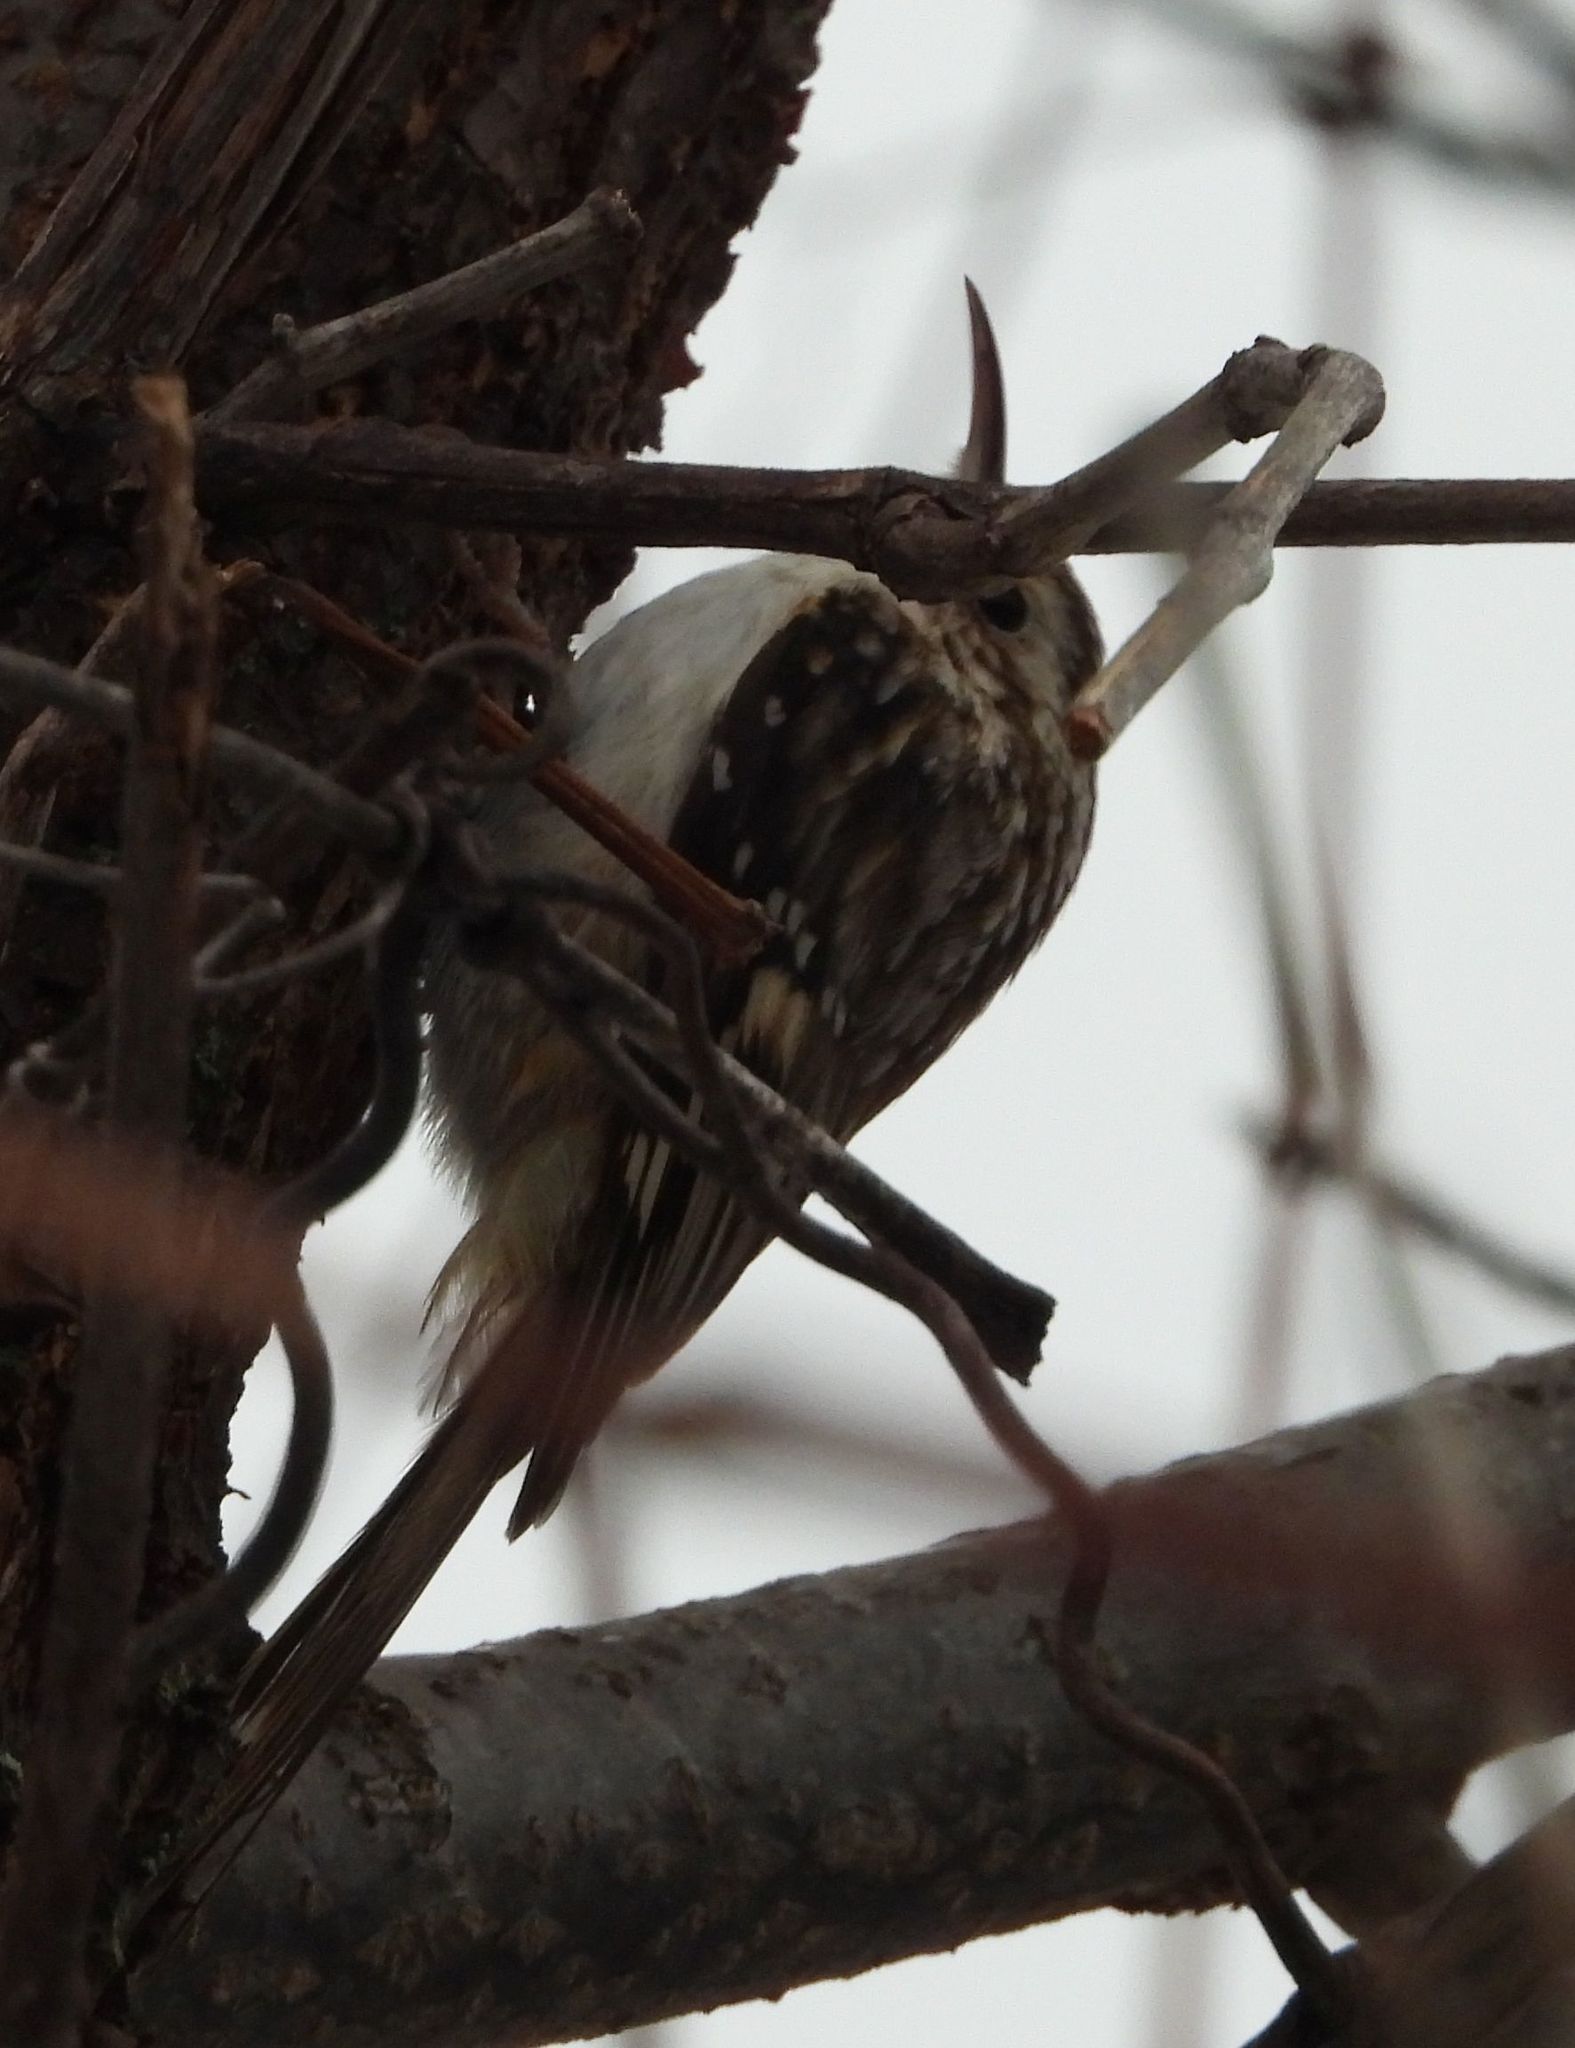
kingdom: Animalia
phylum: Chordata
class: Aves
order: Passeriformes
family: Certhiidae
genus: Certhia
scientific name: Certhia americana
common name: Brown creeper
